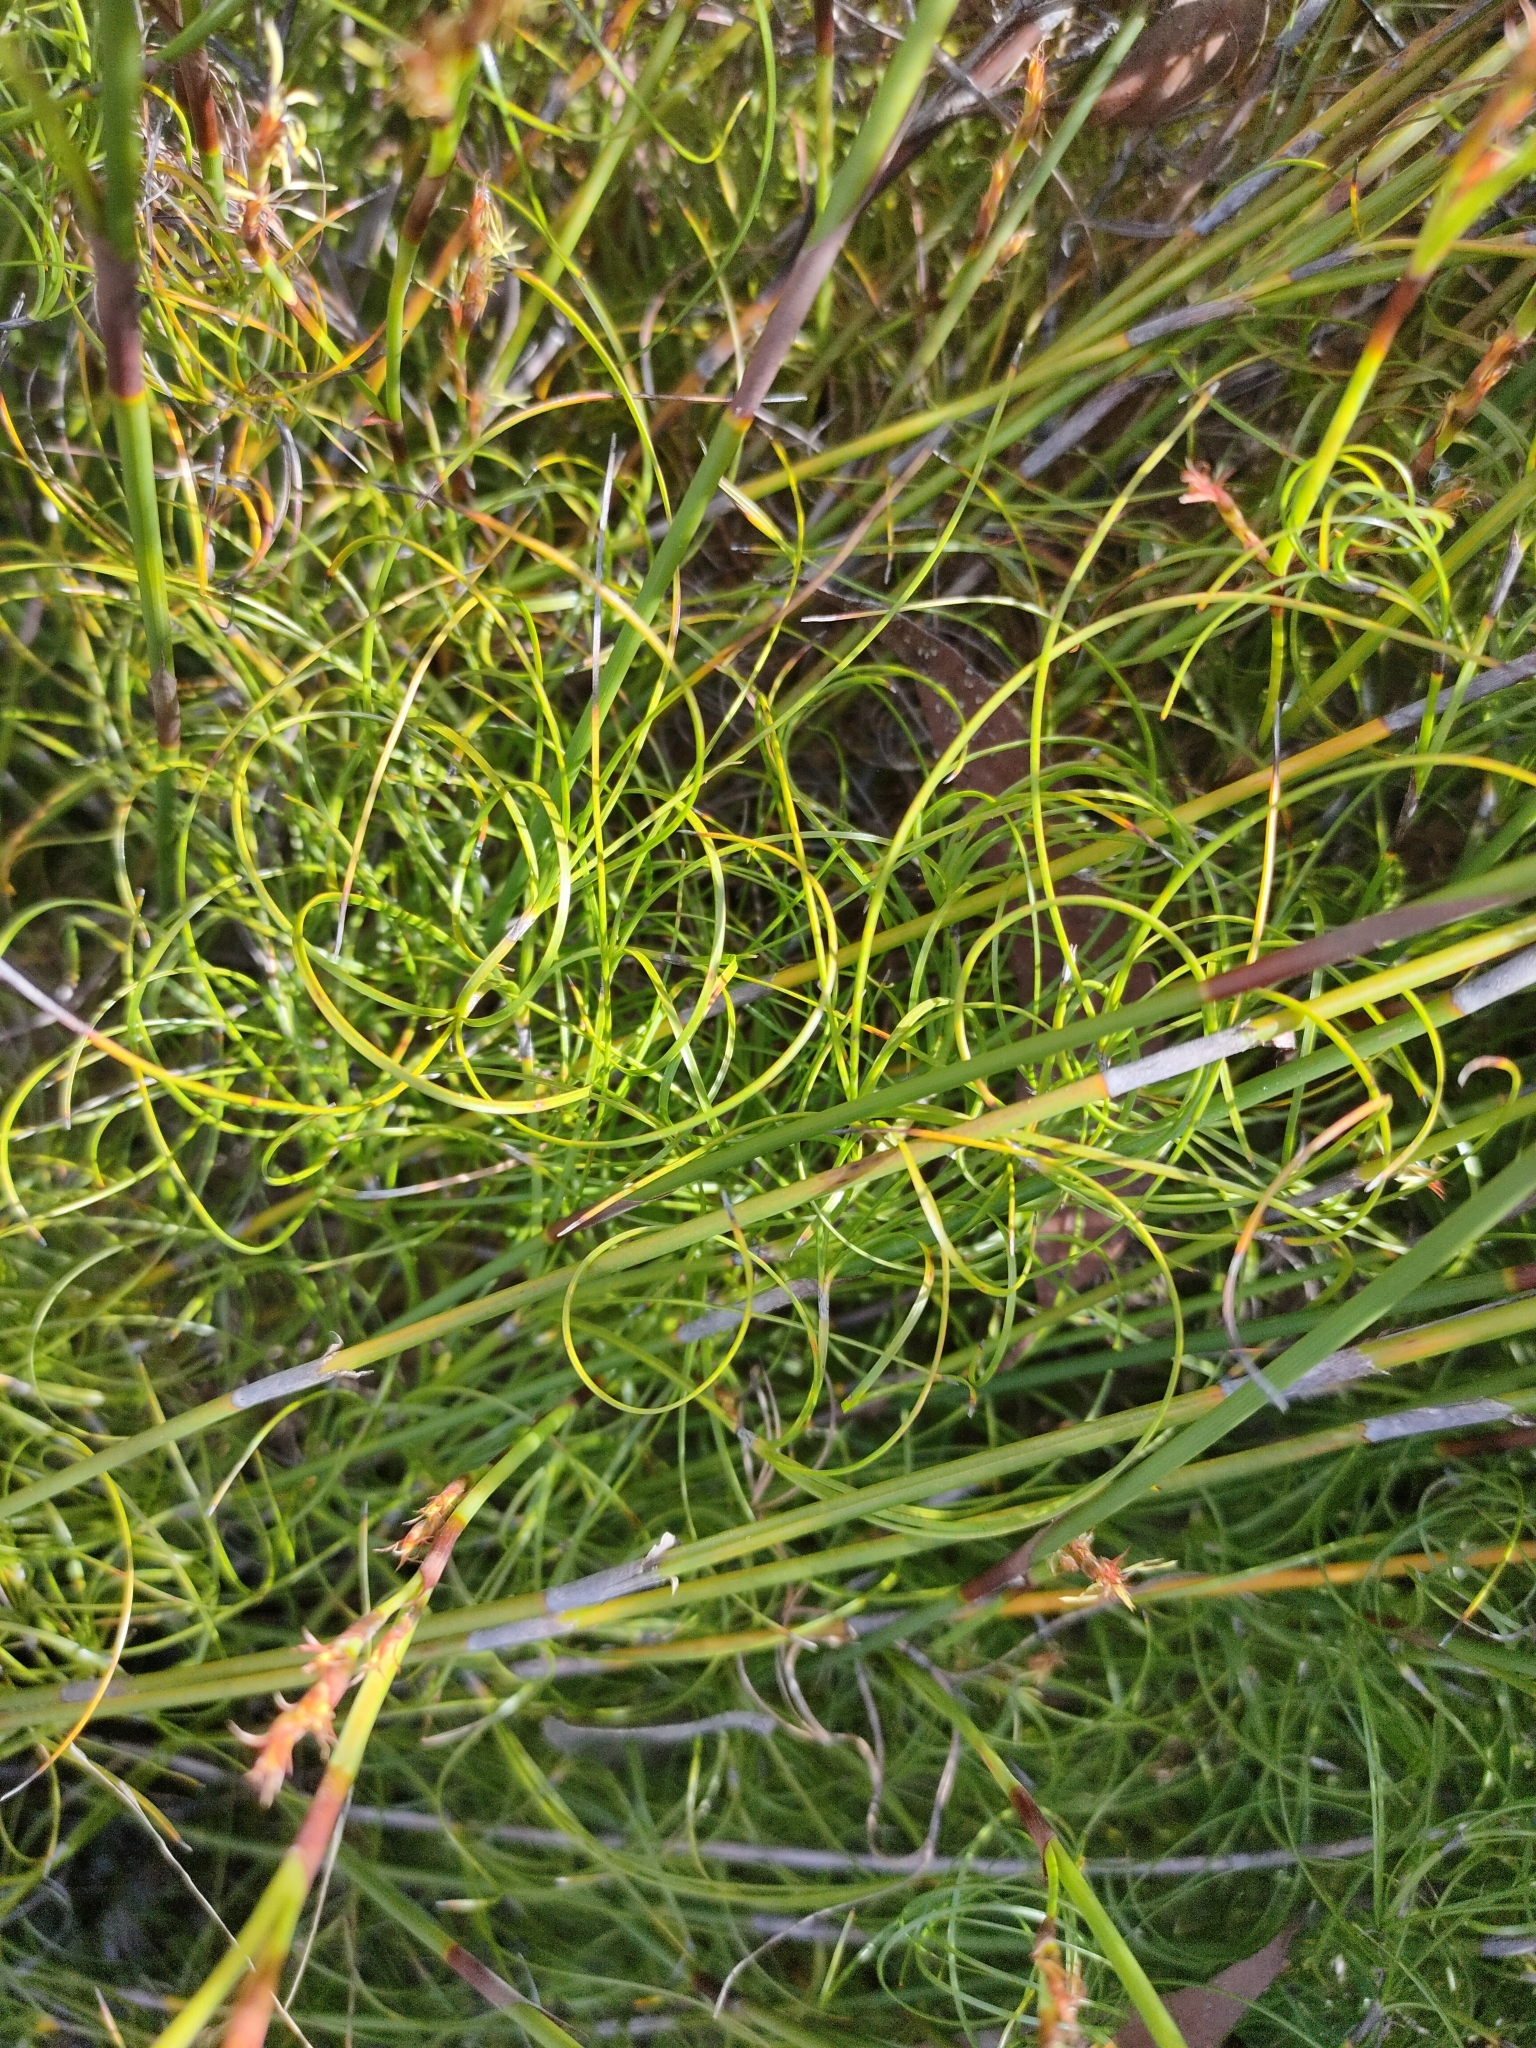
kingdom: Plantae
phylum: Tracheophyta
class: Liliopsida
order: Poales
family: Cyperaceae
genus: Caustis
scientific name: Caustis recurvata
